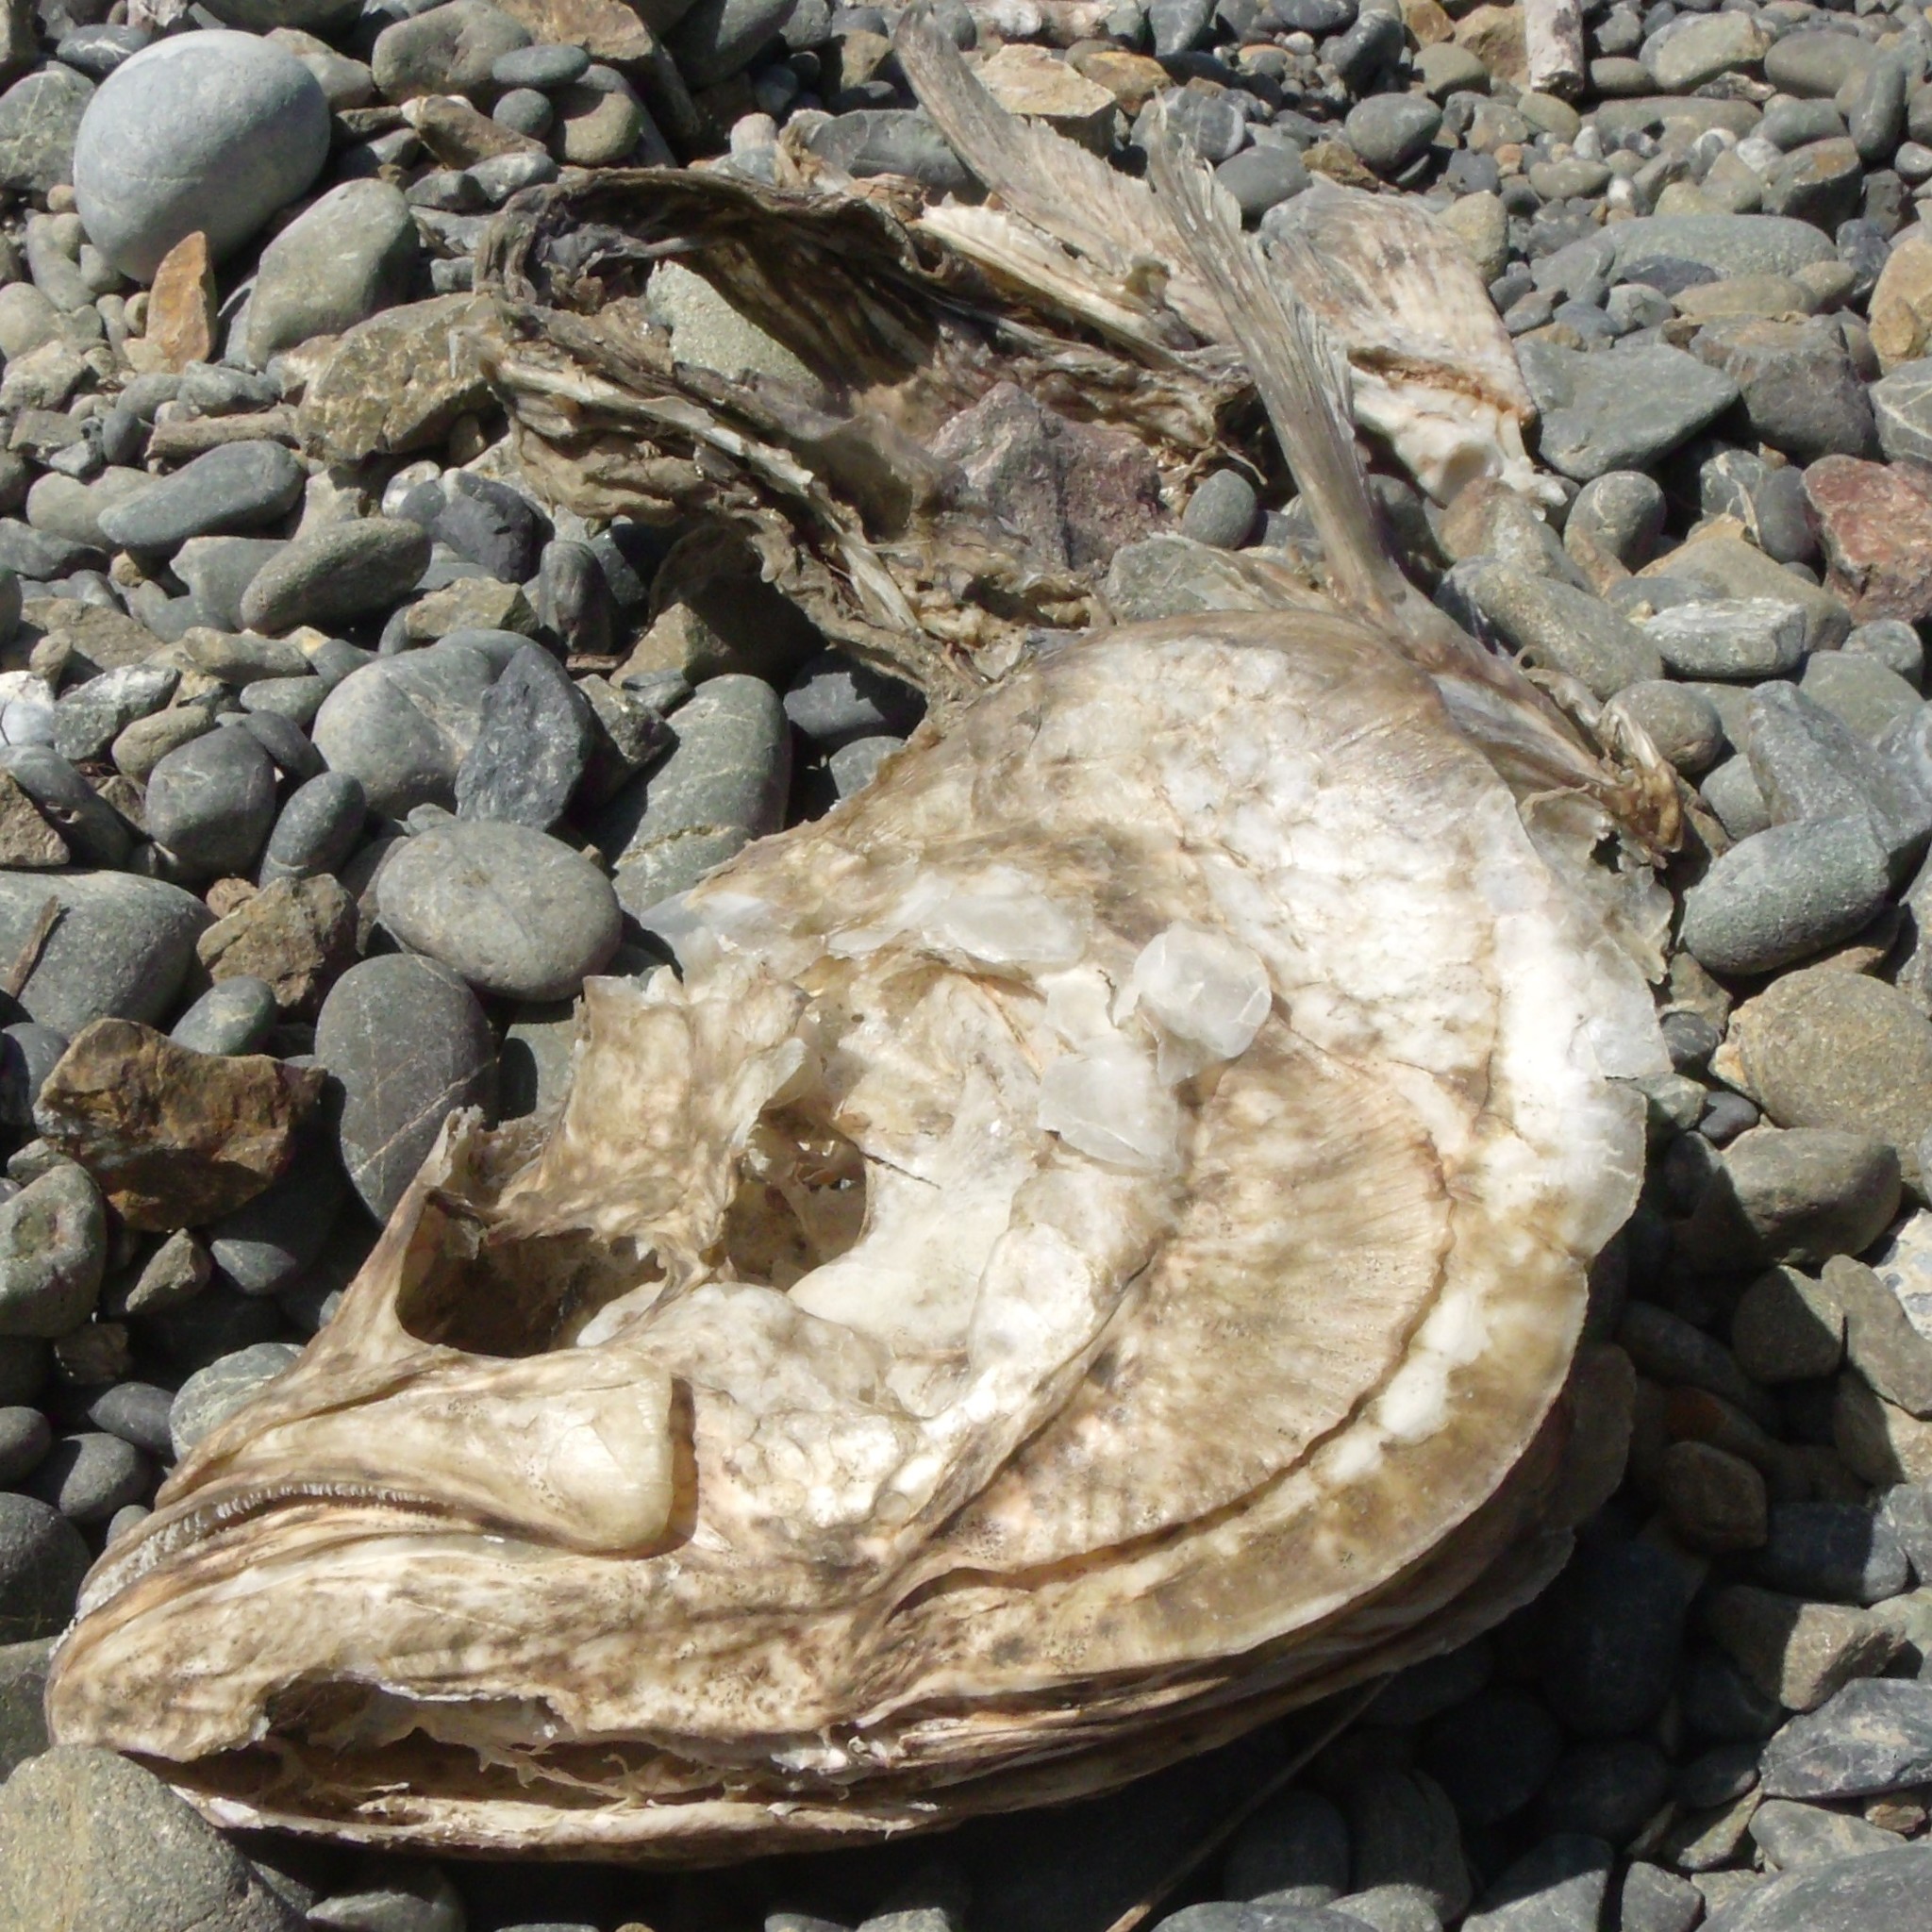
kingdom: Animalia
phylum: Chordata
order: Perciformes
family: Arripidae
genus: Arripis
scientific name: Arripis trutta
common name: Kahawai
